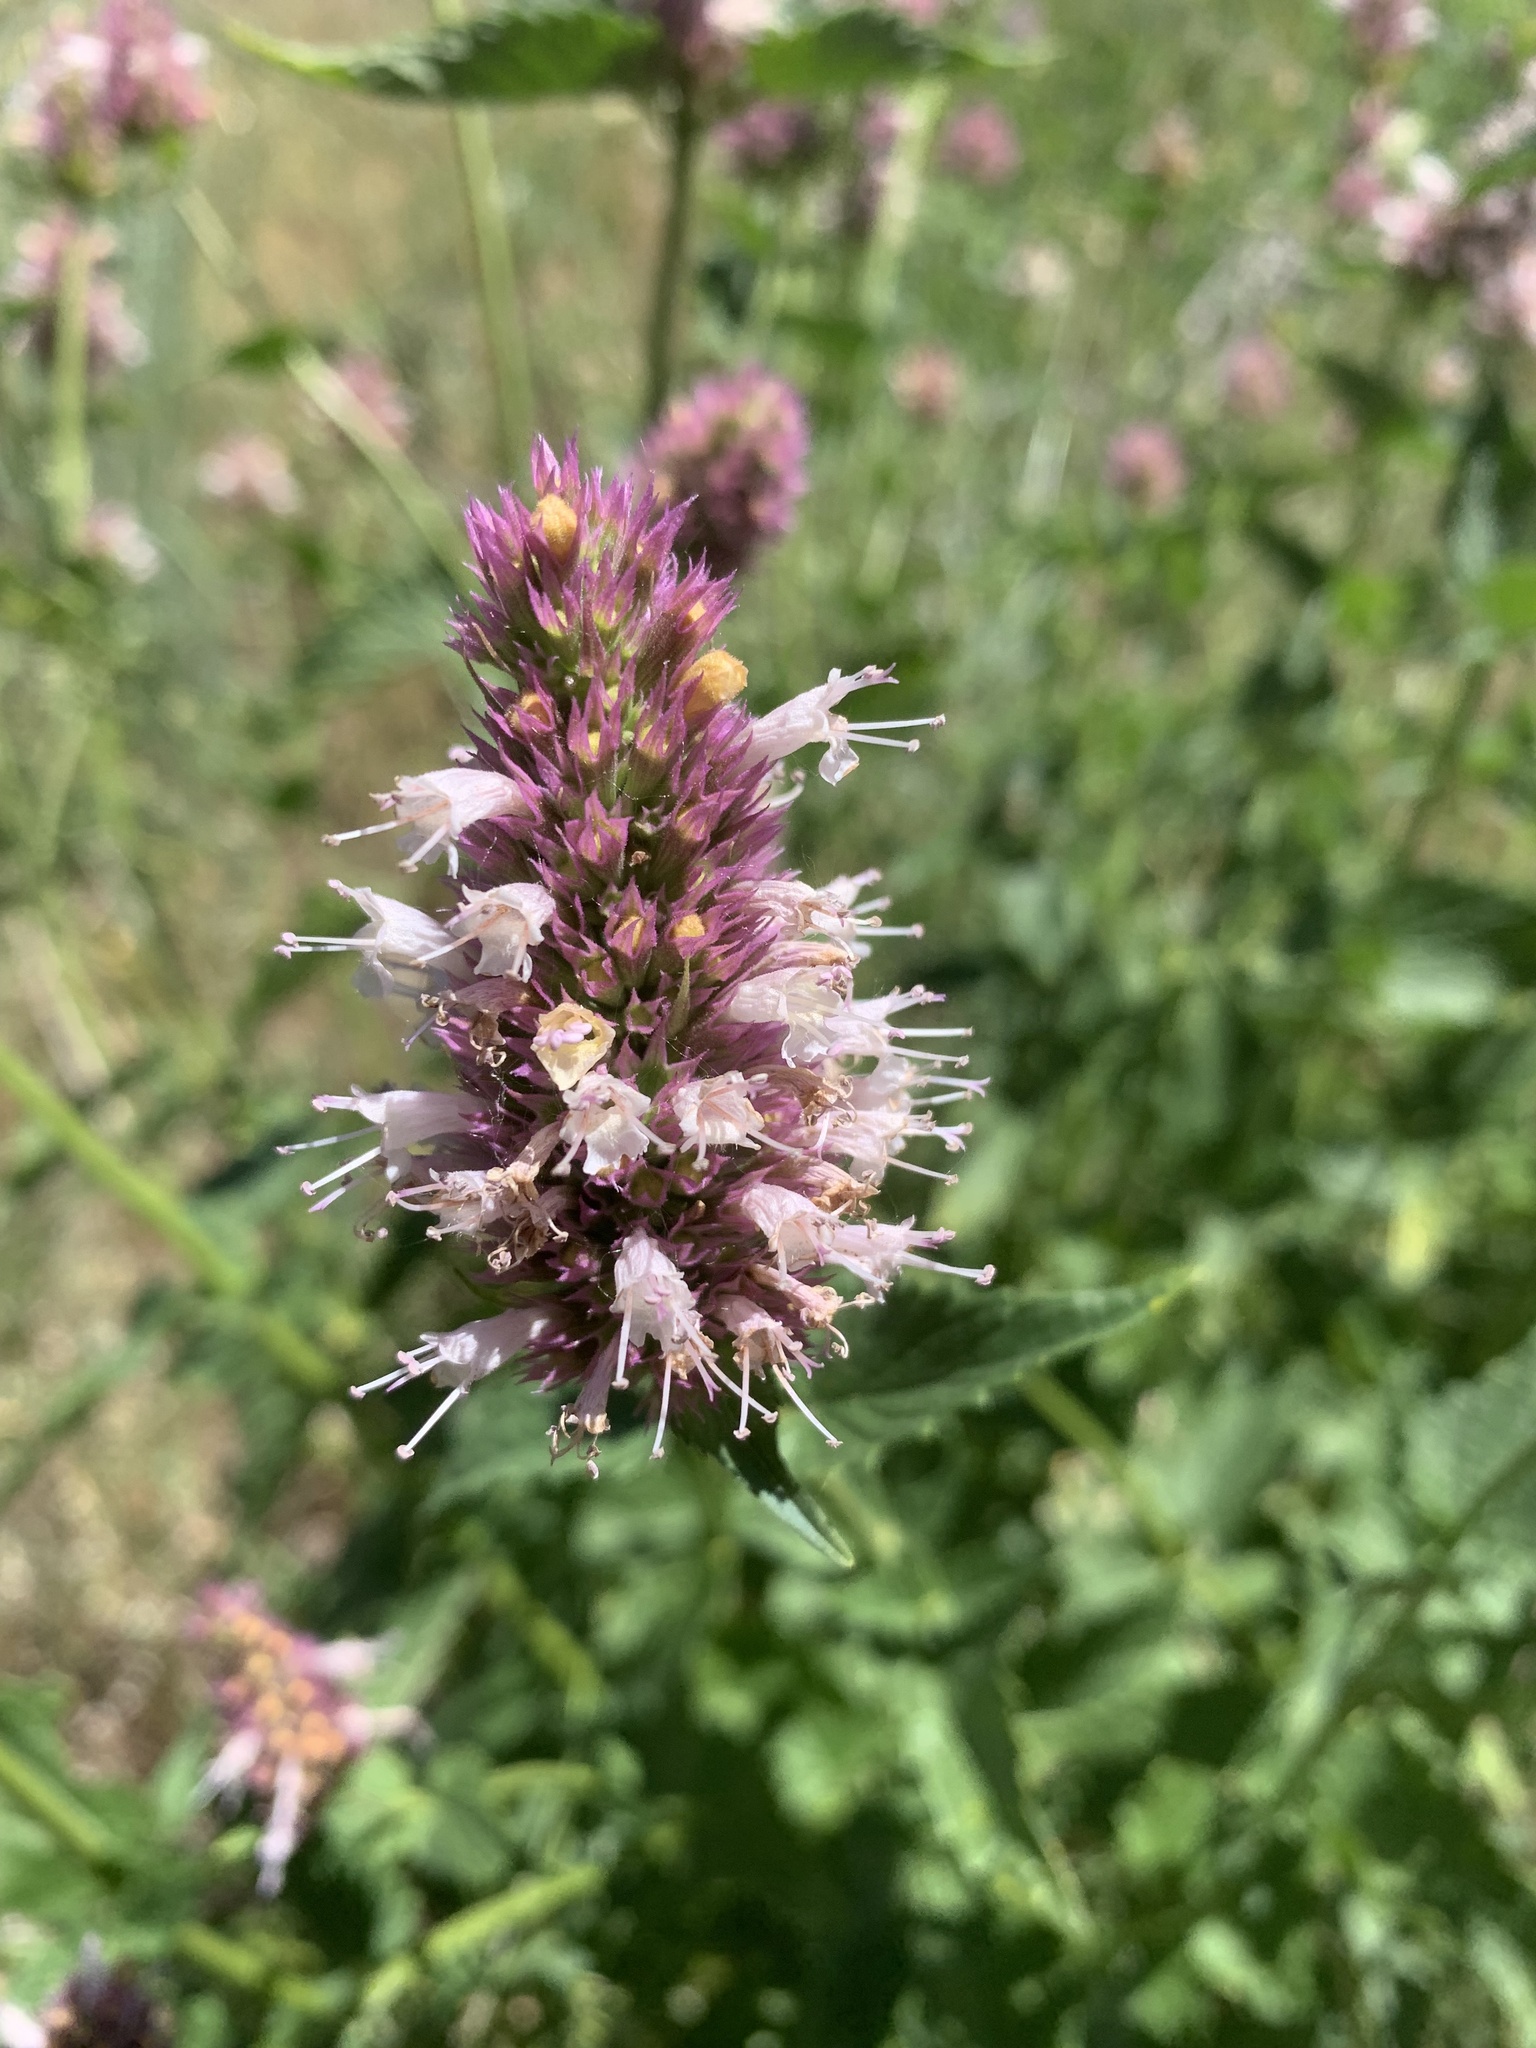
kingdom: Plantae
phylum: Tracheophyta
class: Magnoliopsida
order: Lamiales
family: Lamiaceae
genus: Agastache
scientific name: Agastache urticifolia
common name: Horsemint giant hyssop
